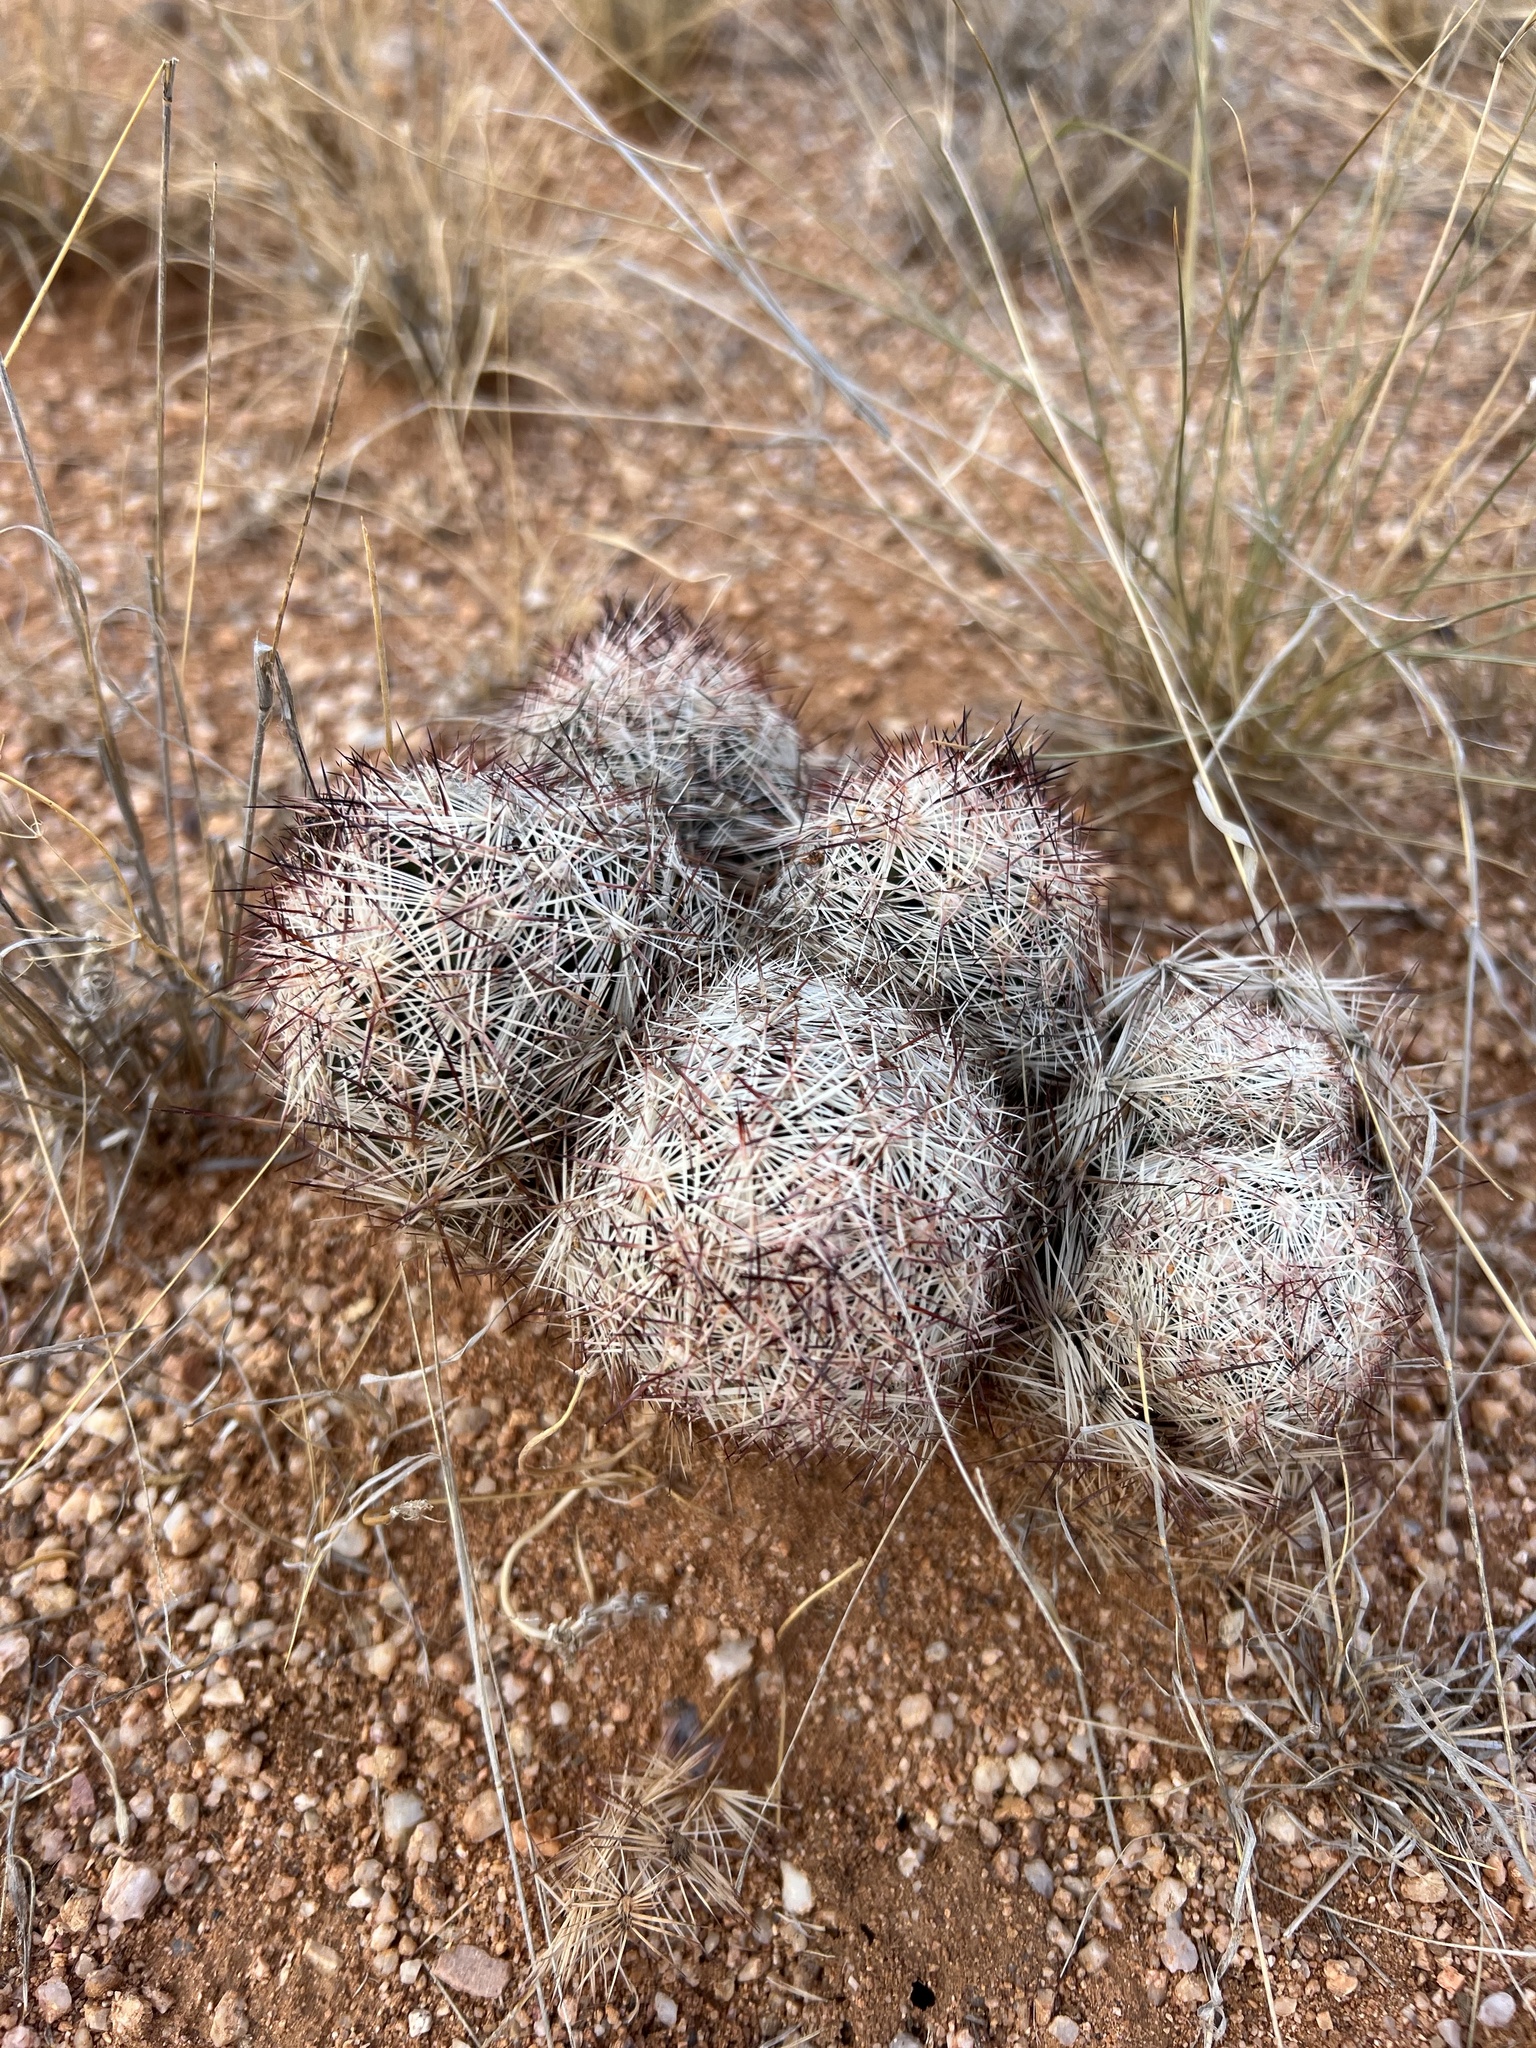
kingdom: Plantae
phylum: Tracheophyta
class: Magnoliopsida
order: Caryophyllales
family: Cactaceae
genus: Pelecyphora
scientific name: Pelecyphora vivipara
